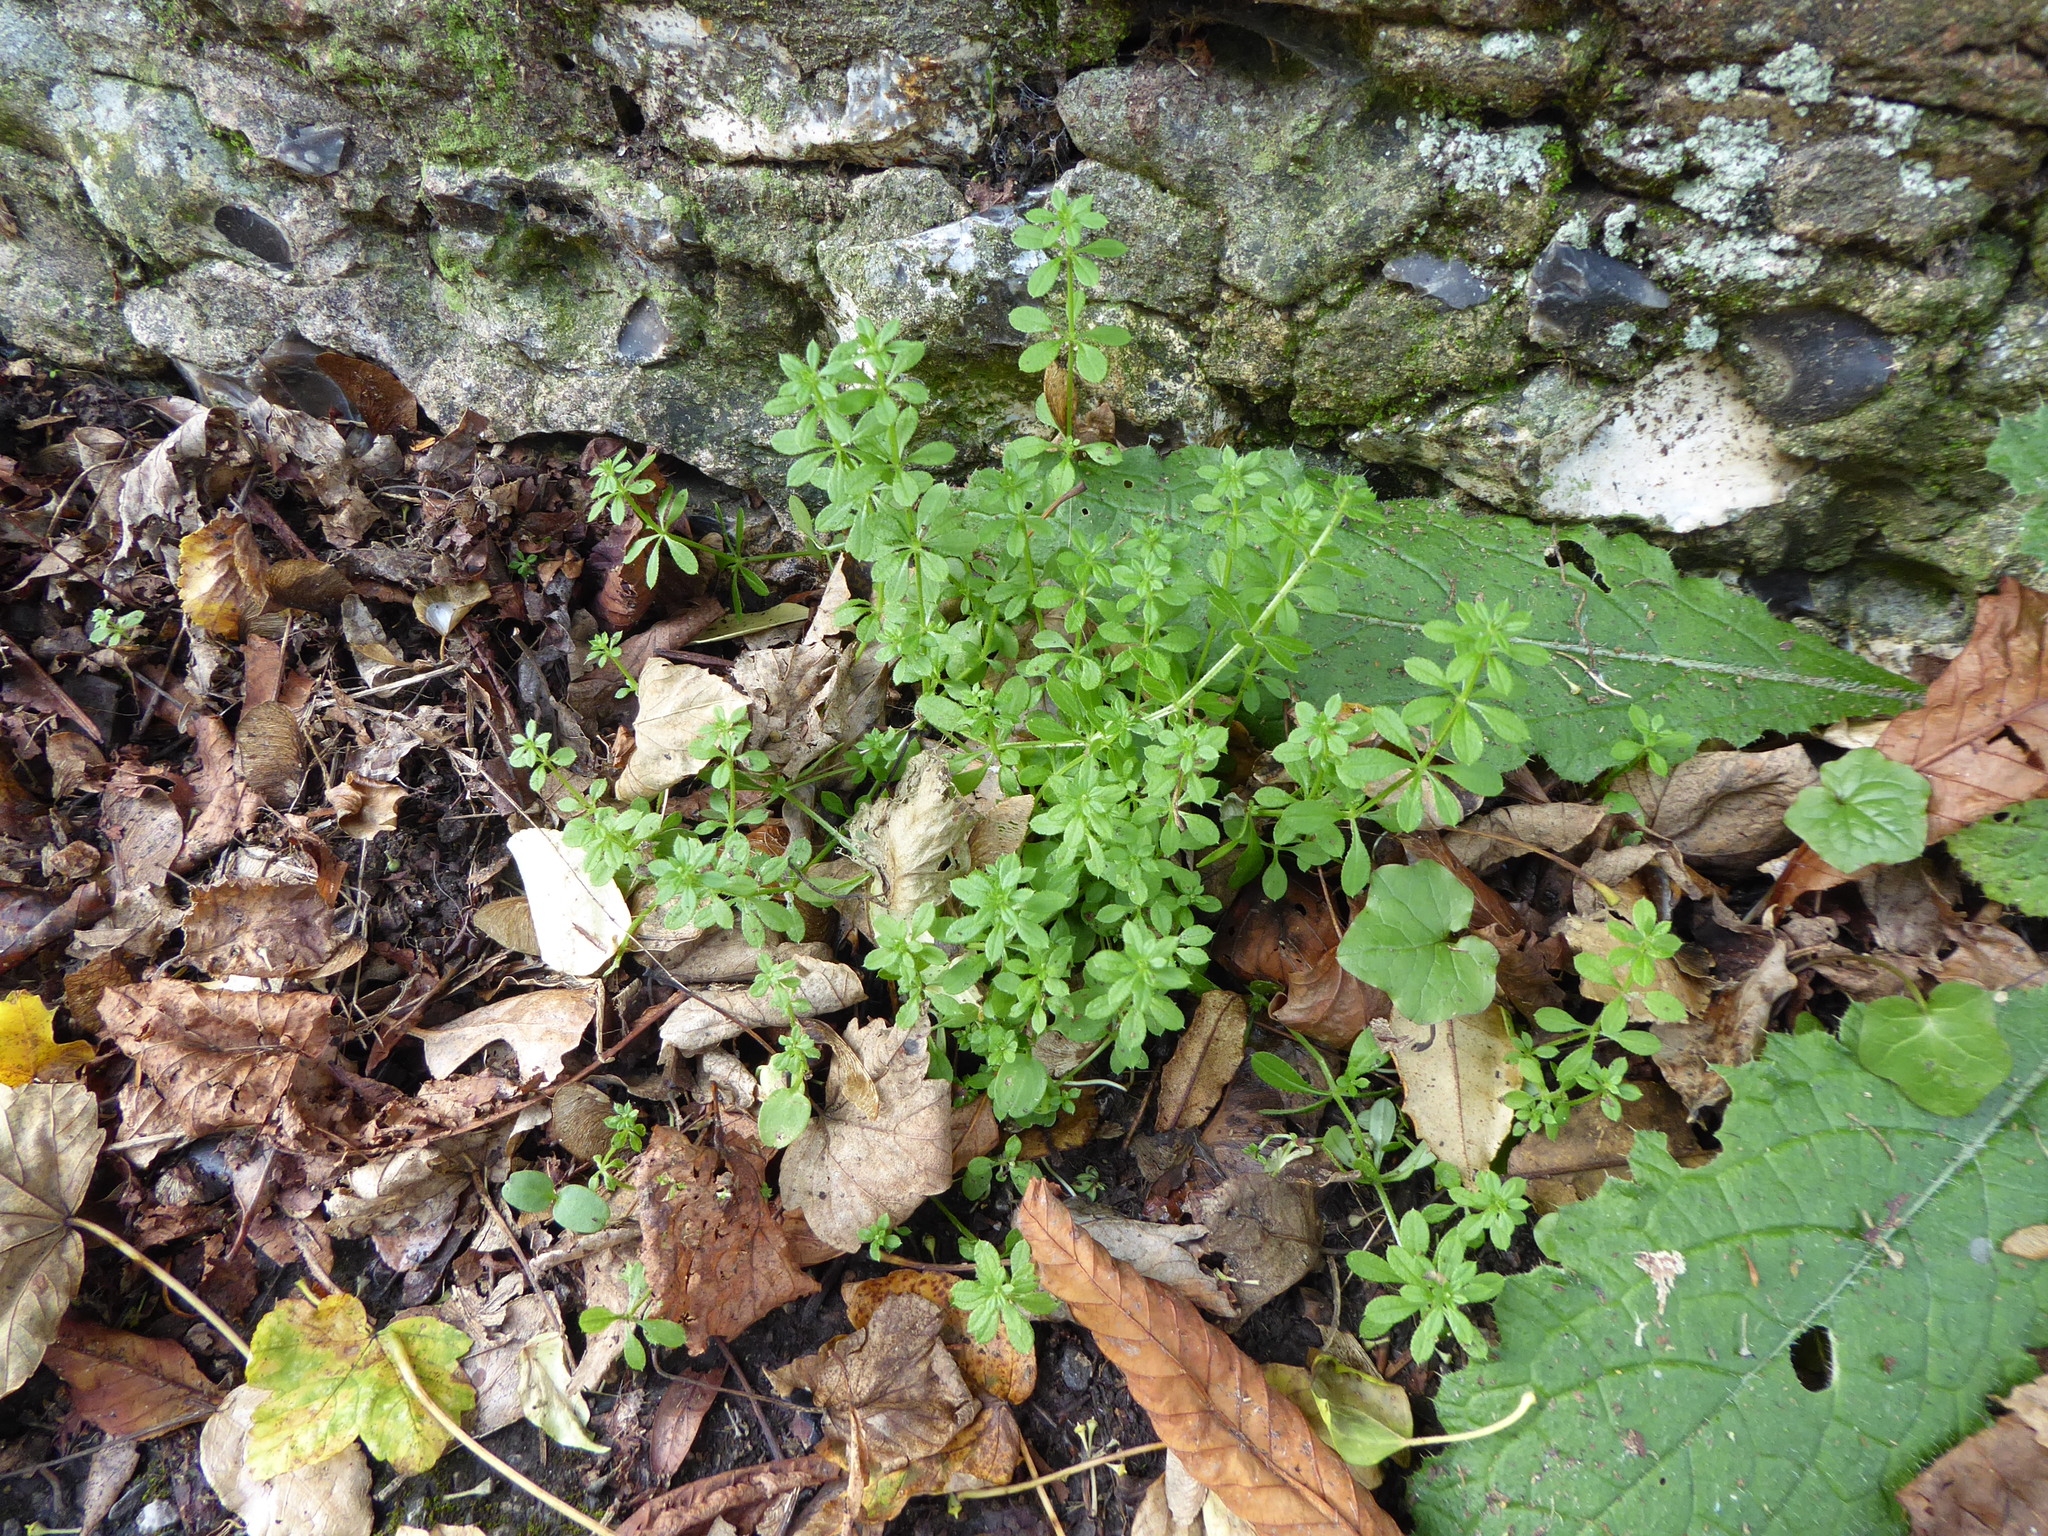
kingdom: Plantae
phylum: Tracheophyta
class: Magnoliopsida
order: Gentianales
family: Rubiaceae
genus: Galium
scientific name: Galium aparine
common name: Cleavers
